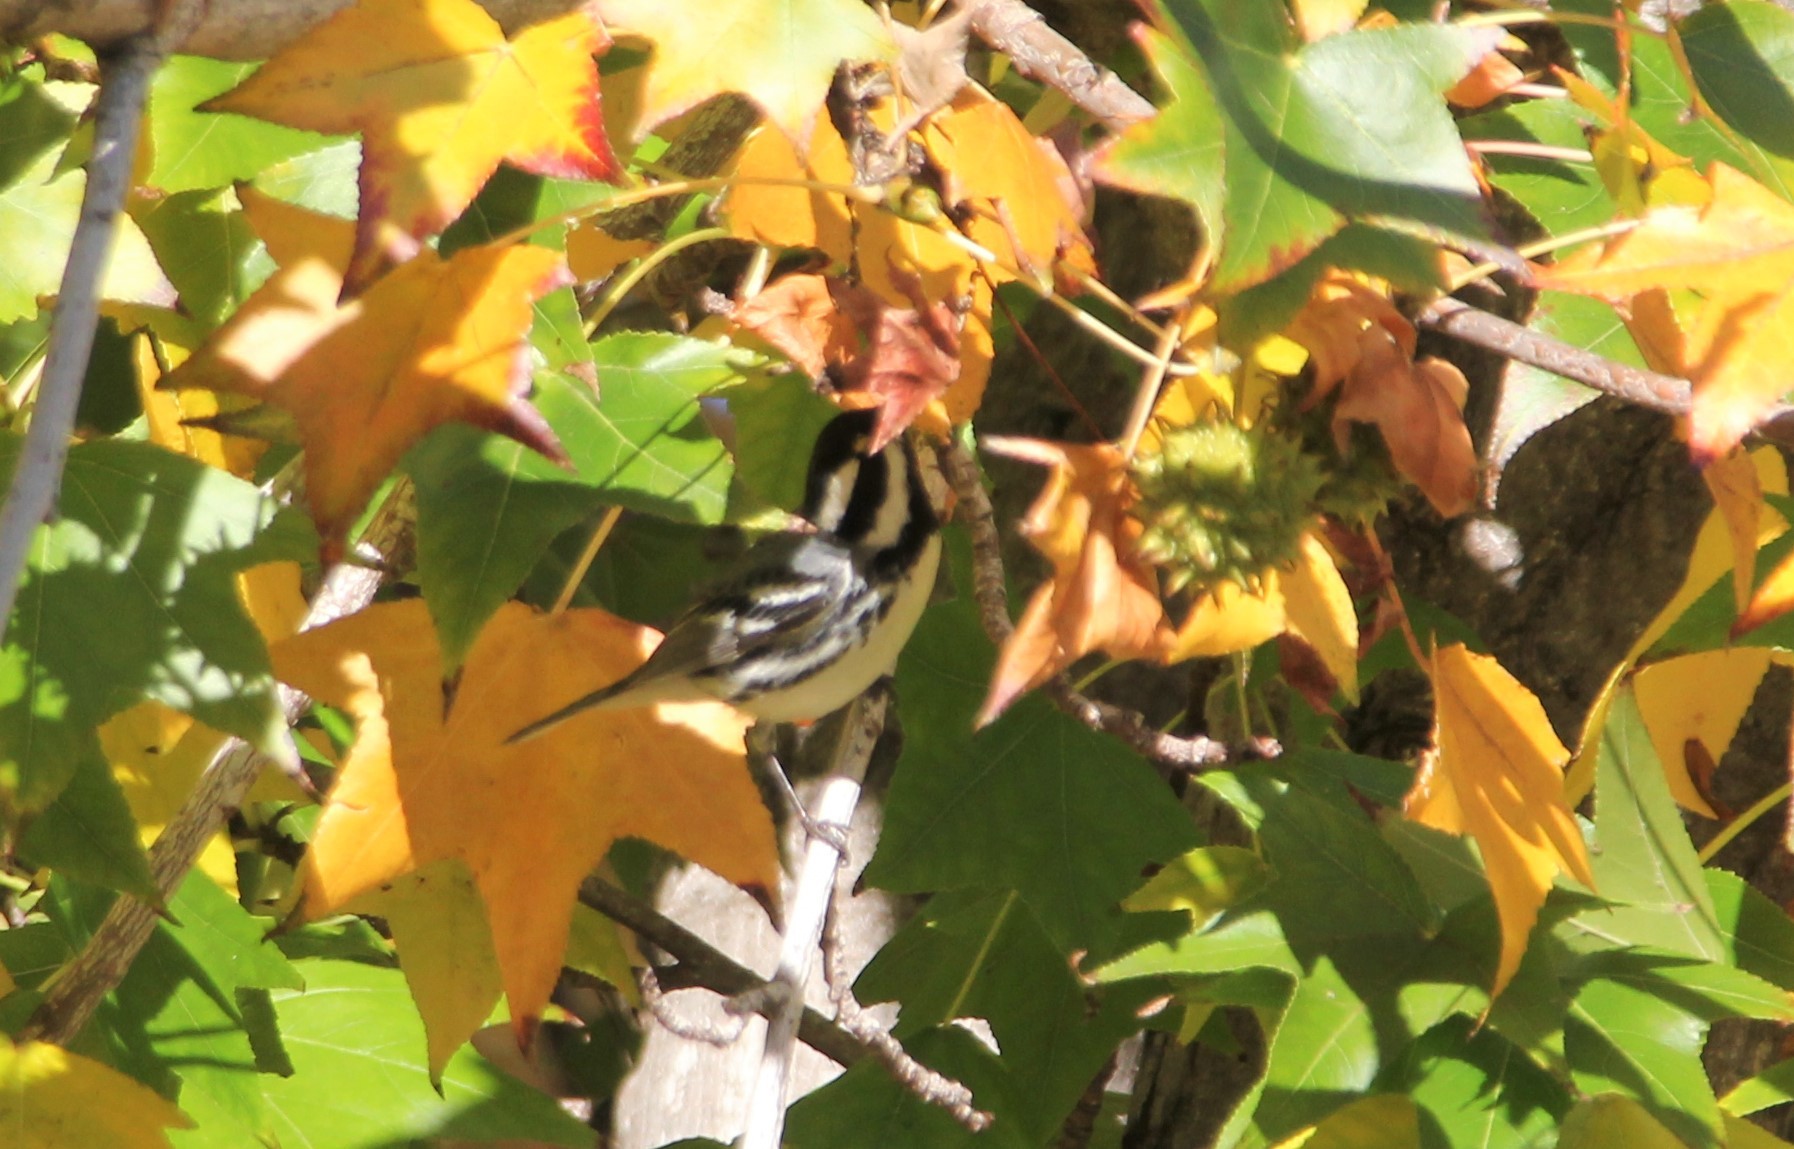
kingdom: Animalia
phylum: Chordata
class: Aves
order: Passeriformes
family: Parulidae
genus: Setophaga
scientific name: Setophaga nigrescens
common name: Black-throated gray warbler
